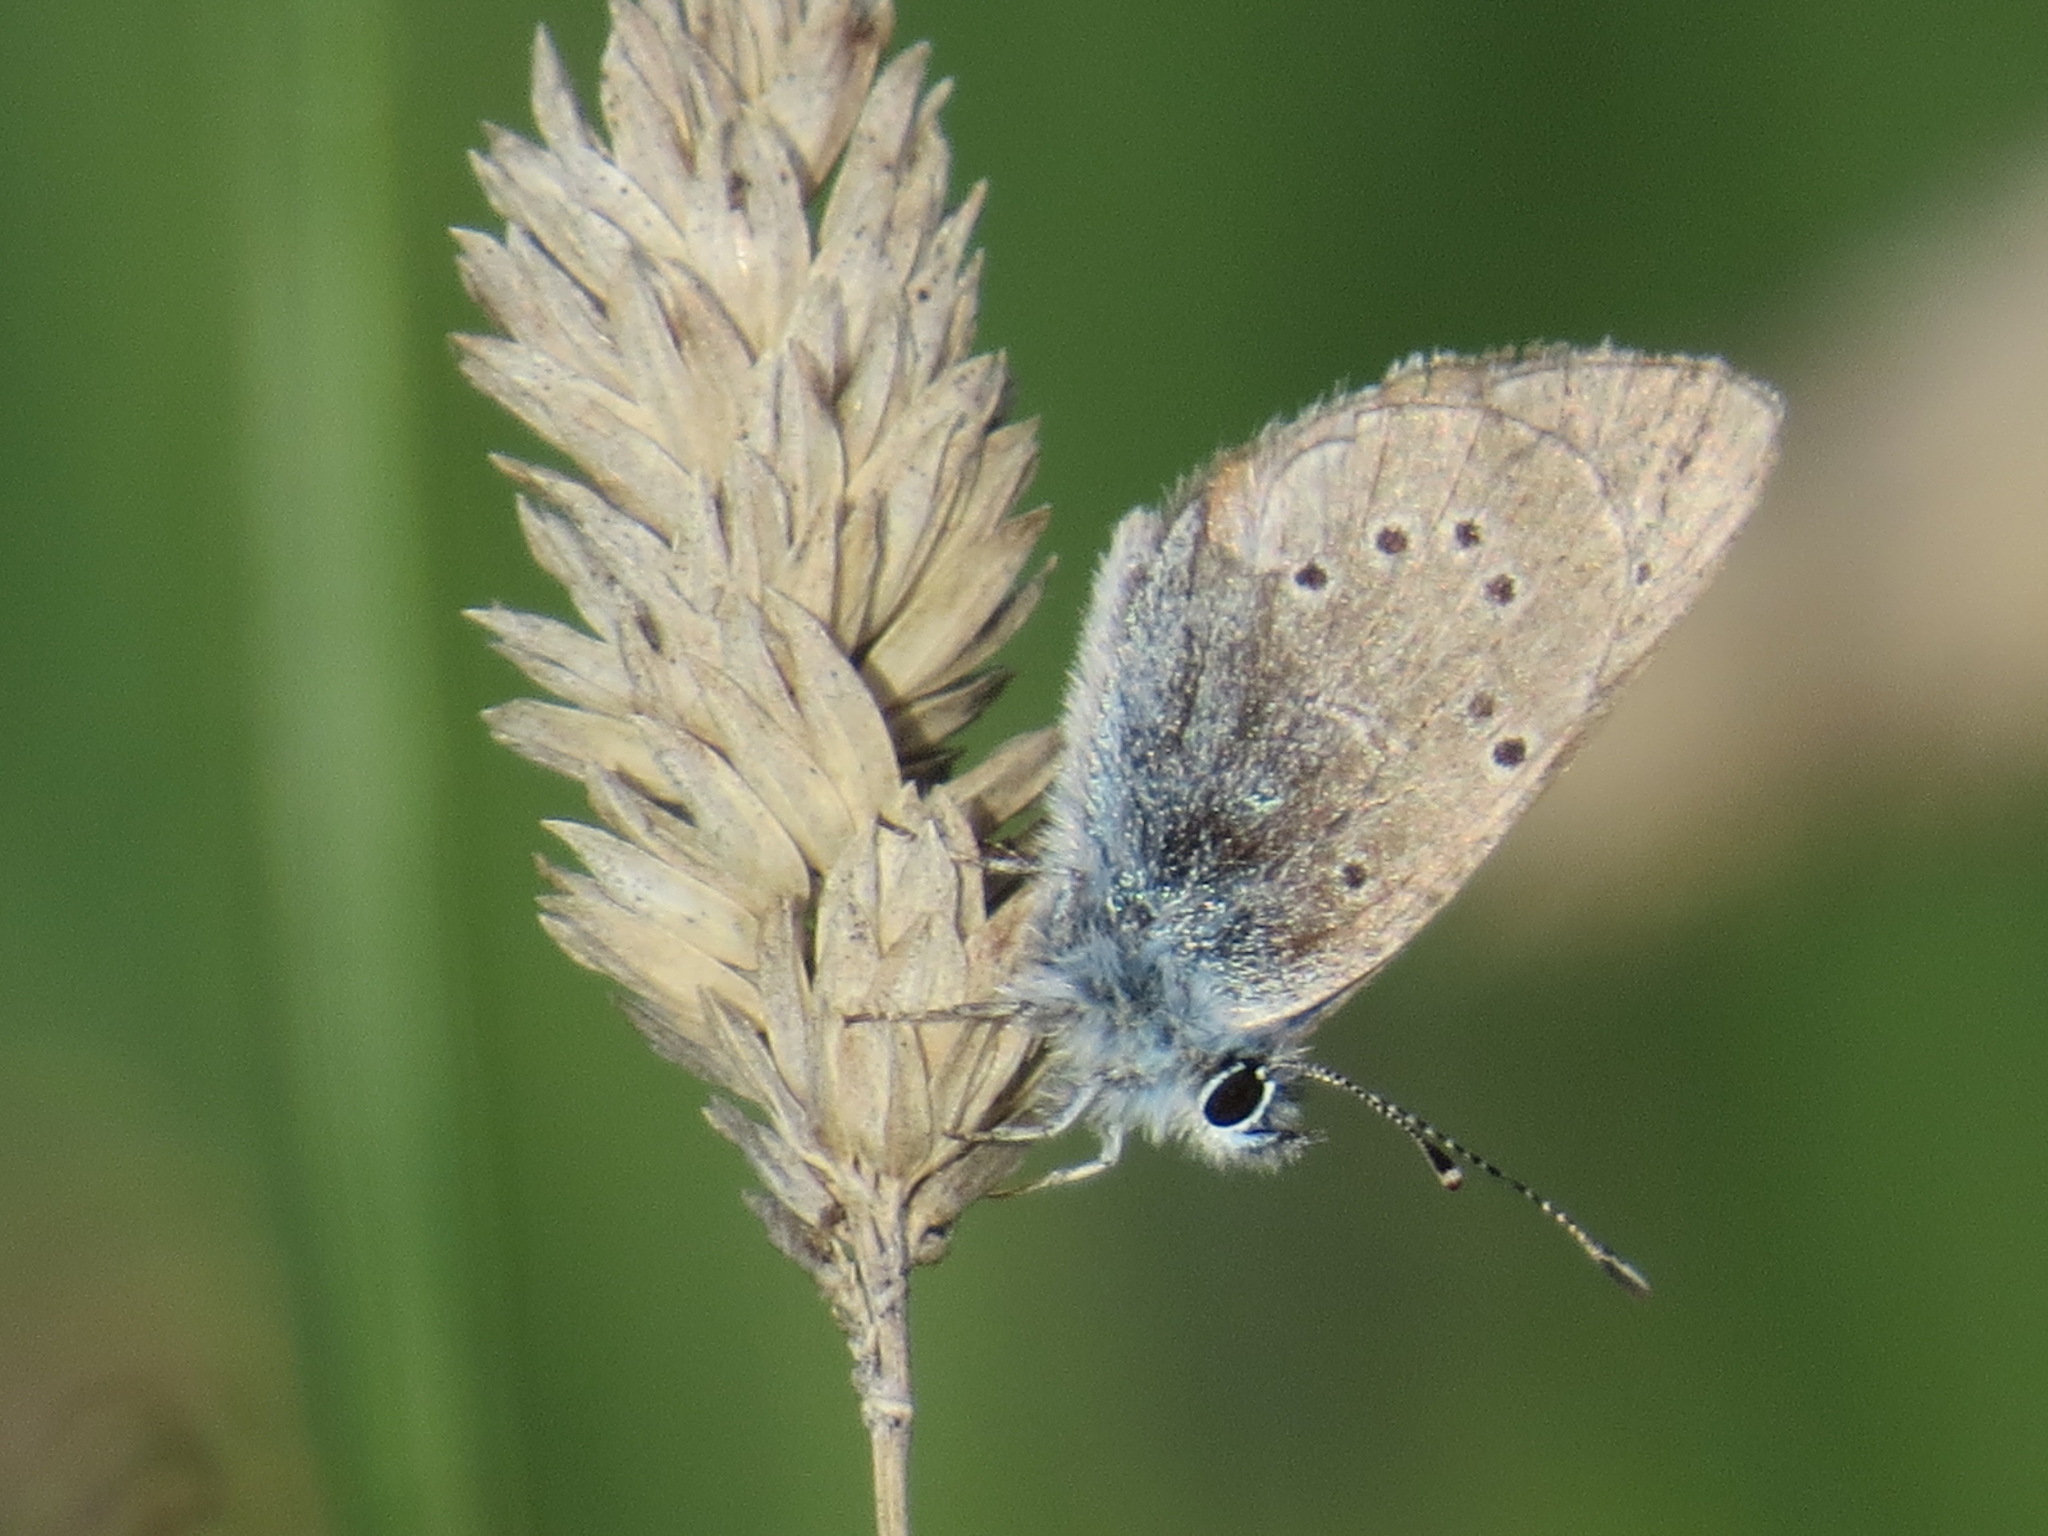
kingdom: Animalia
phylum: Arthropoda
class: Insecta
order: Lepidoptera
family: Lycaenidae
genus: Glaucopsyche
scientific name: Glaucopsyche lygdamus
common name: Silvery blue
